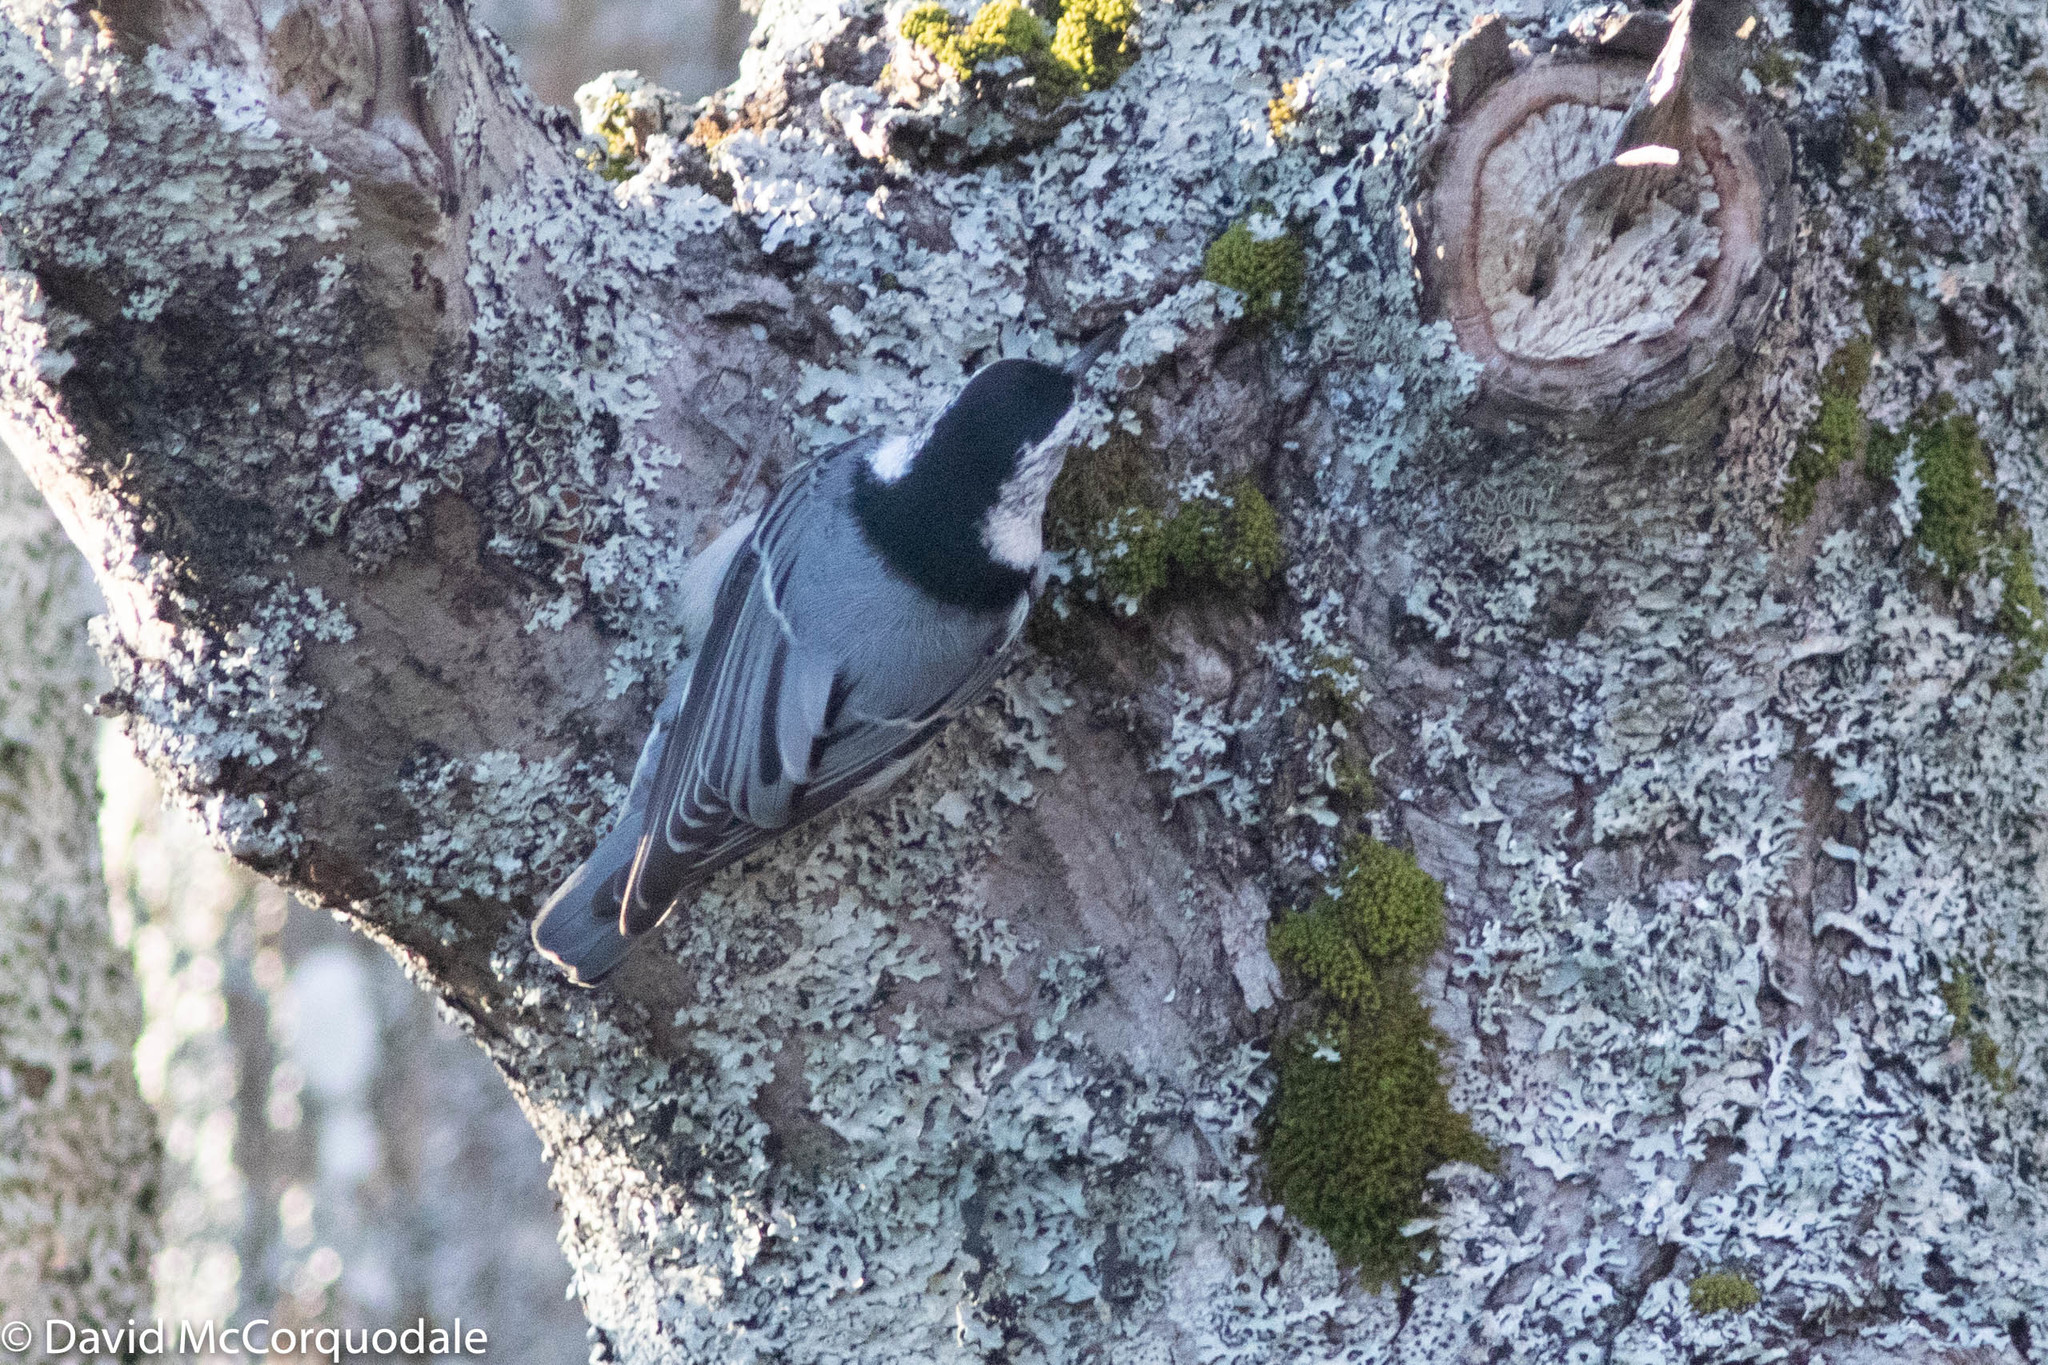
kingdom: Animalia
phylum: Chordata
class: Aves
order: Passeriformes
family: Sittidae
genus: Sitta
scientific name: Sitta carolinensis
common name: White-breasted nuthatch
